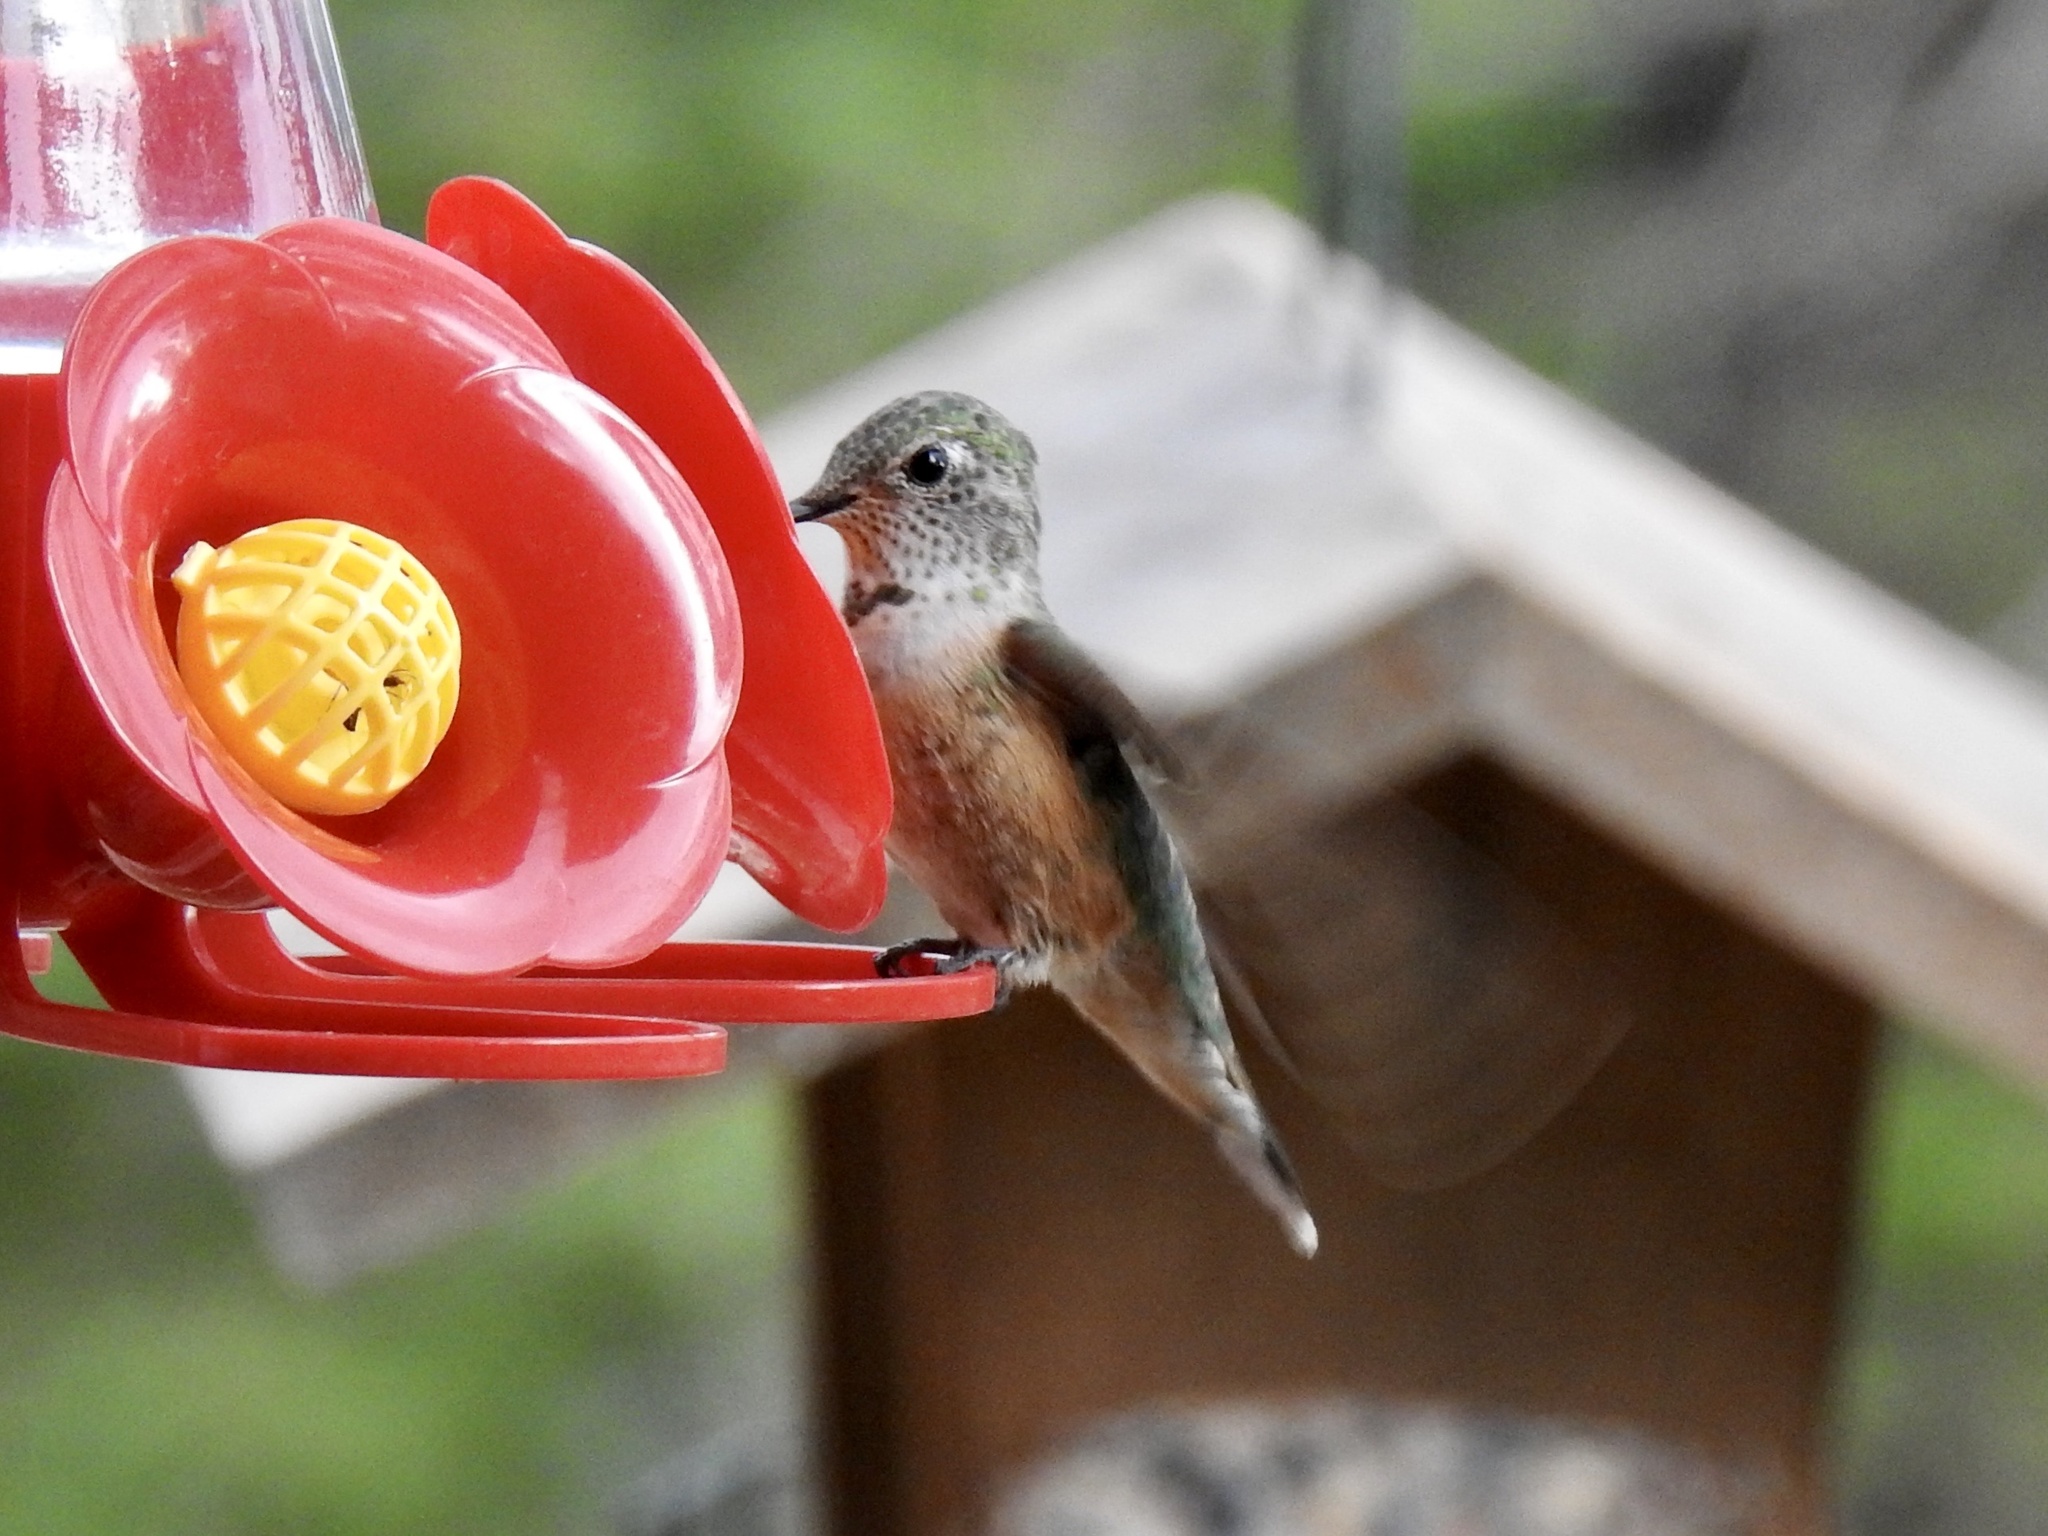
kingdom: Animalia
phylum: Chordata
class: Aves
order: Apodiformes
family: Trochilidae
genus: Selasphorus
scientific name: Selasphorus platycercus
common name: Broad-tailed hummingbird
